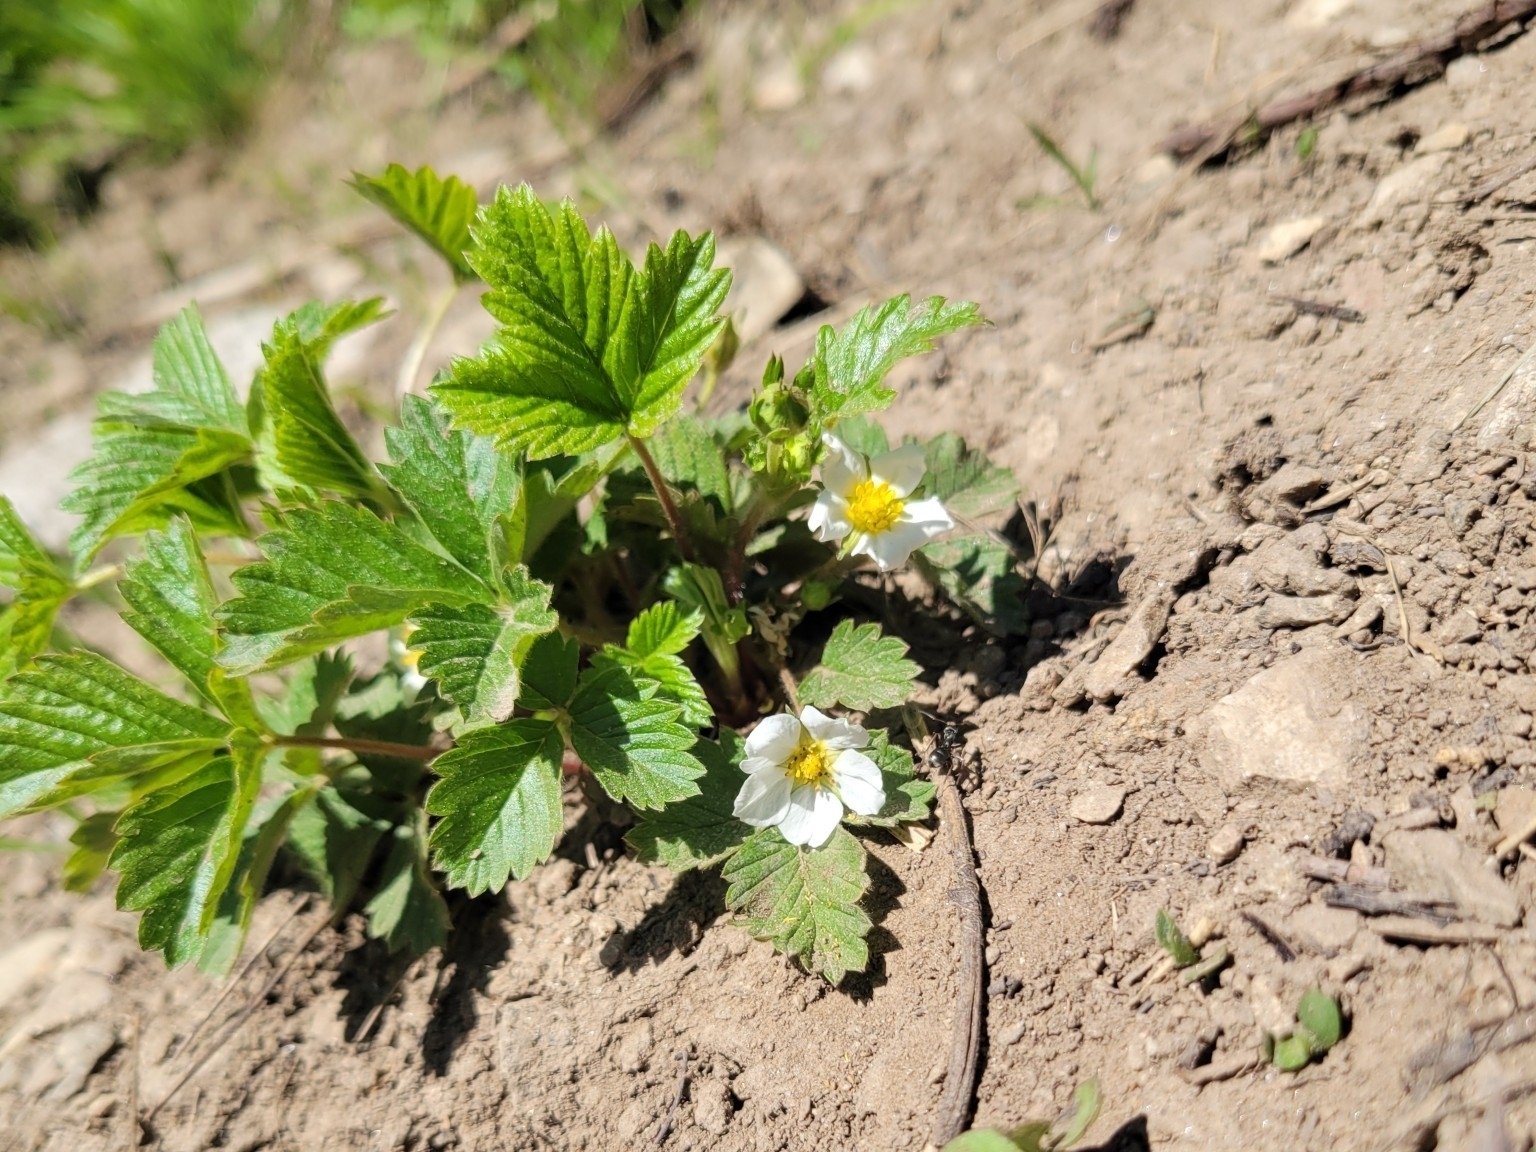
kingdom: Plantae
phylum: Tracheophyta
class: Magnoliopsida
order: Rosales
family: Rosaceae
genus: Fragaria
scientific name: Fragaria vesca
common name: Wild strawberry
